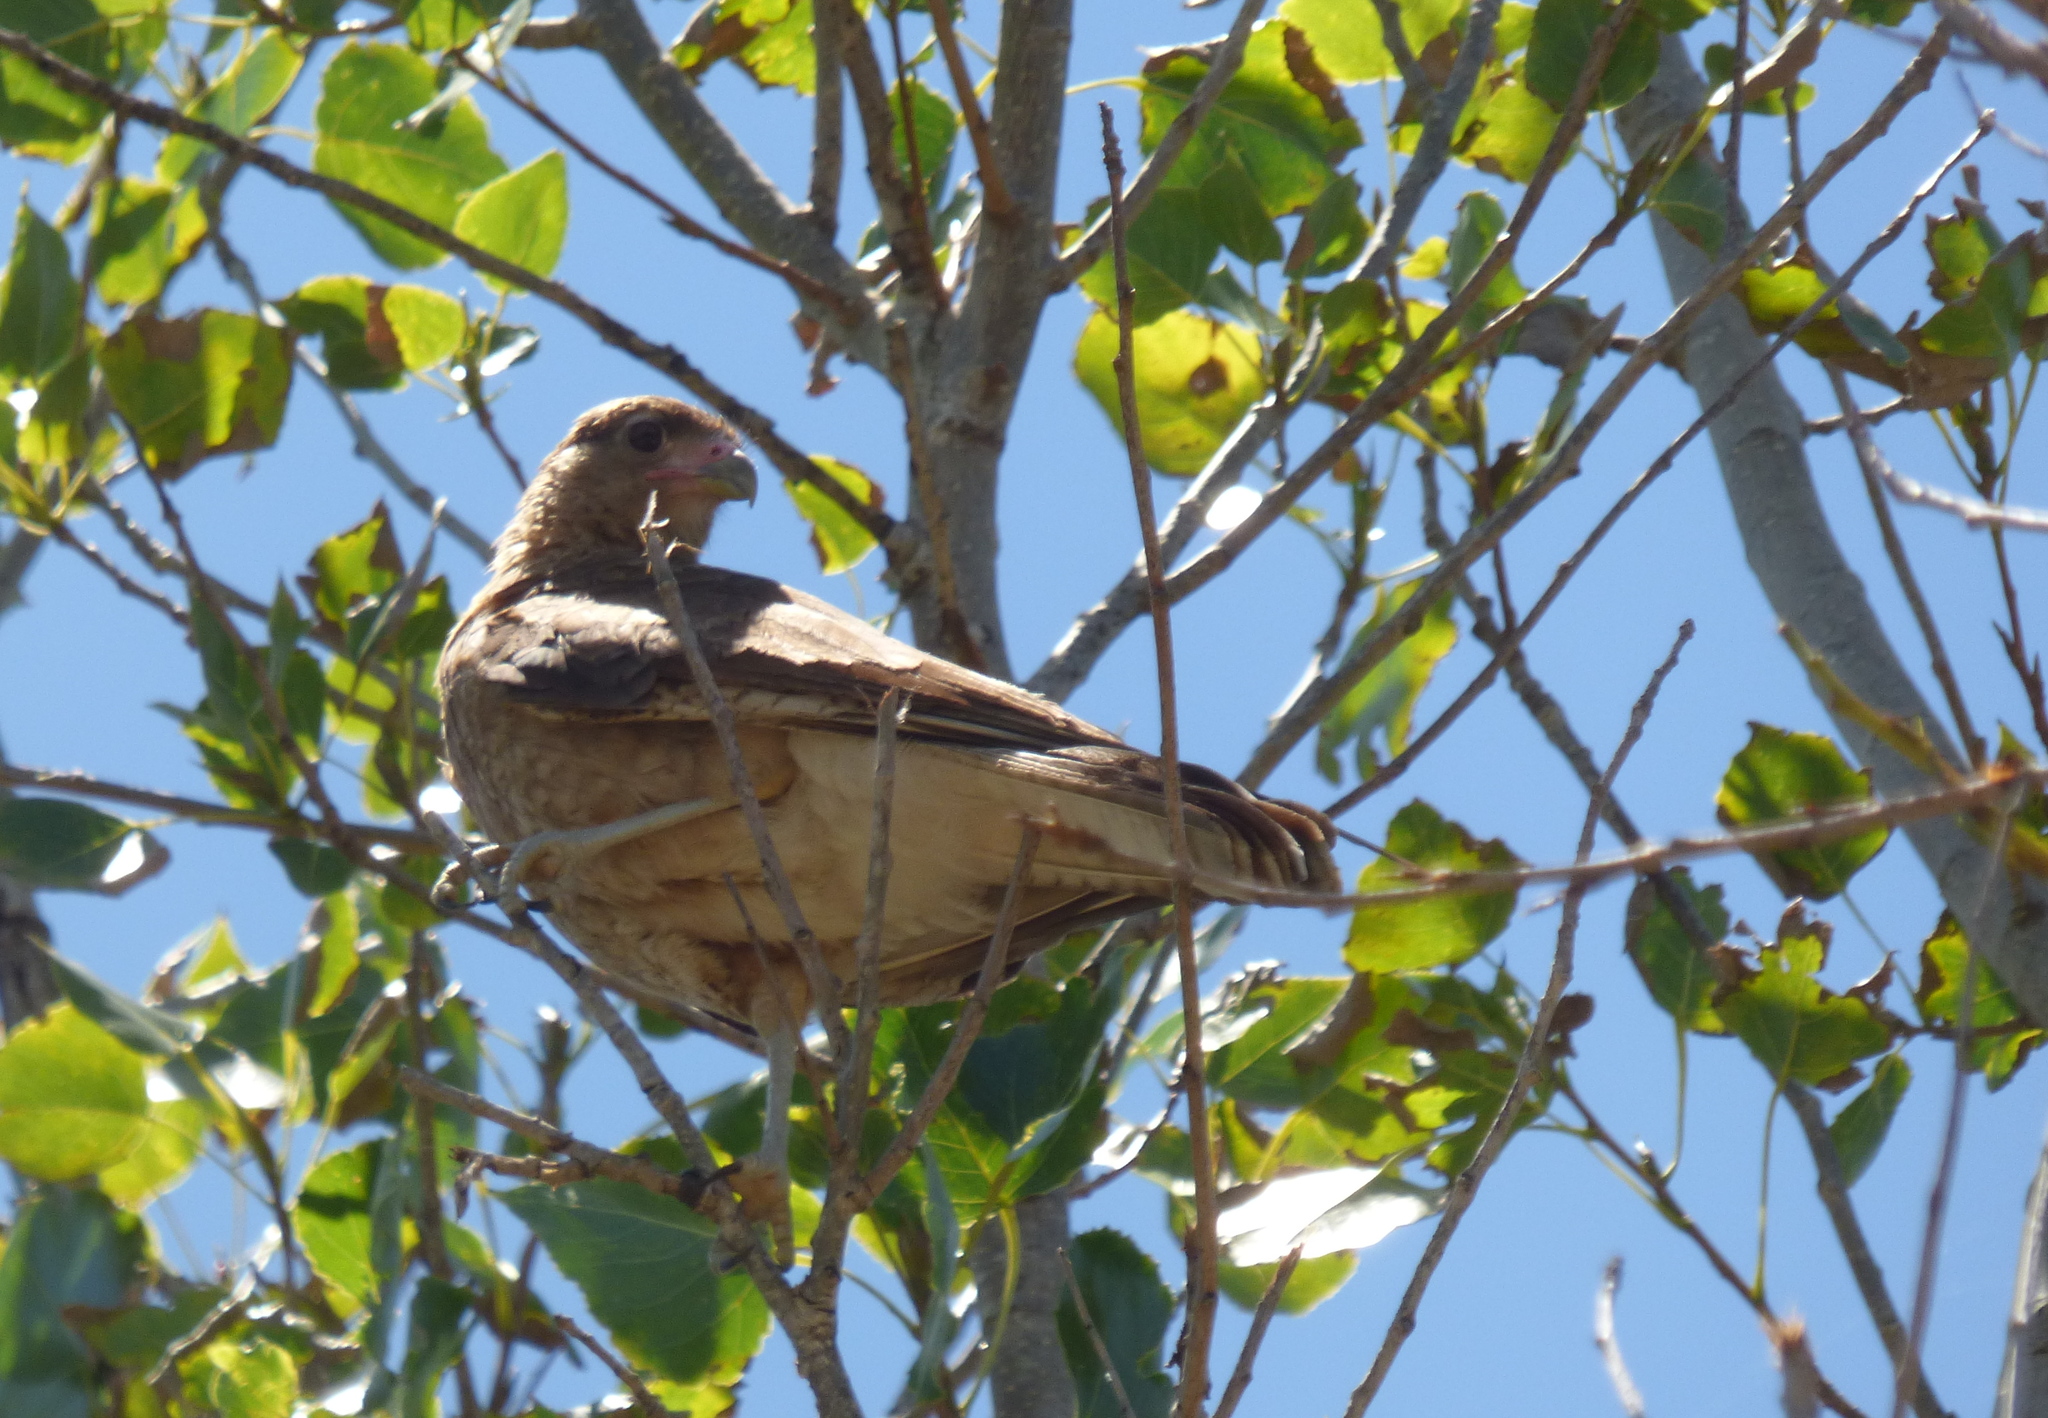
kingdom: Animalia
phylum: Chordata
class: Aves
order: Falconiformes
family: Falconidae
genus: Daptrius
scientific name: Daptrius
